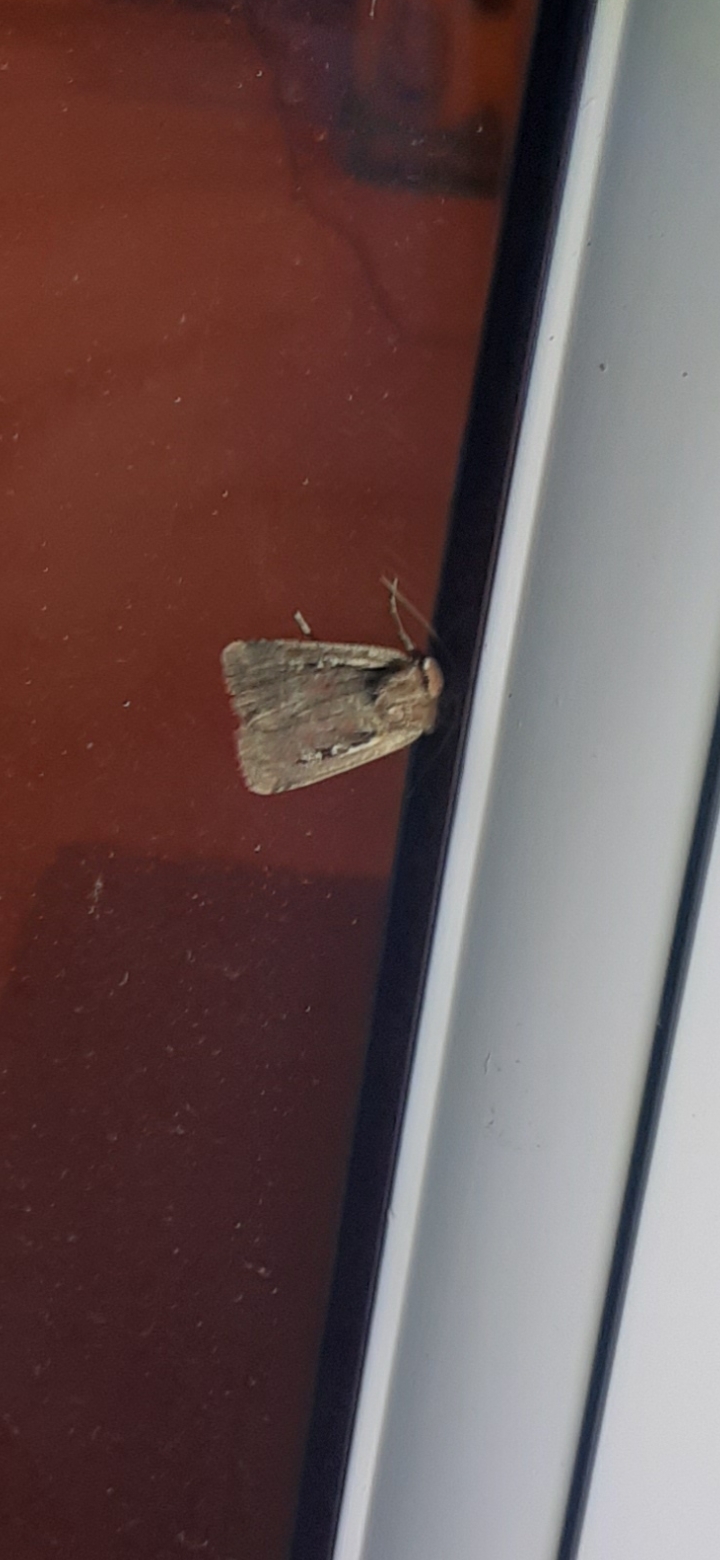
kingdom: Animalia
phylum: Arthropoda
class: Insecta
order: Lepidoptera
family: Noctuidae
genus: Ochropleura
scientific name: Ochropleura plecta
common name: Flame shoulder
